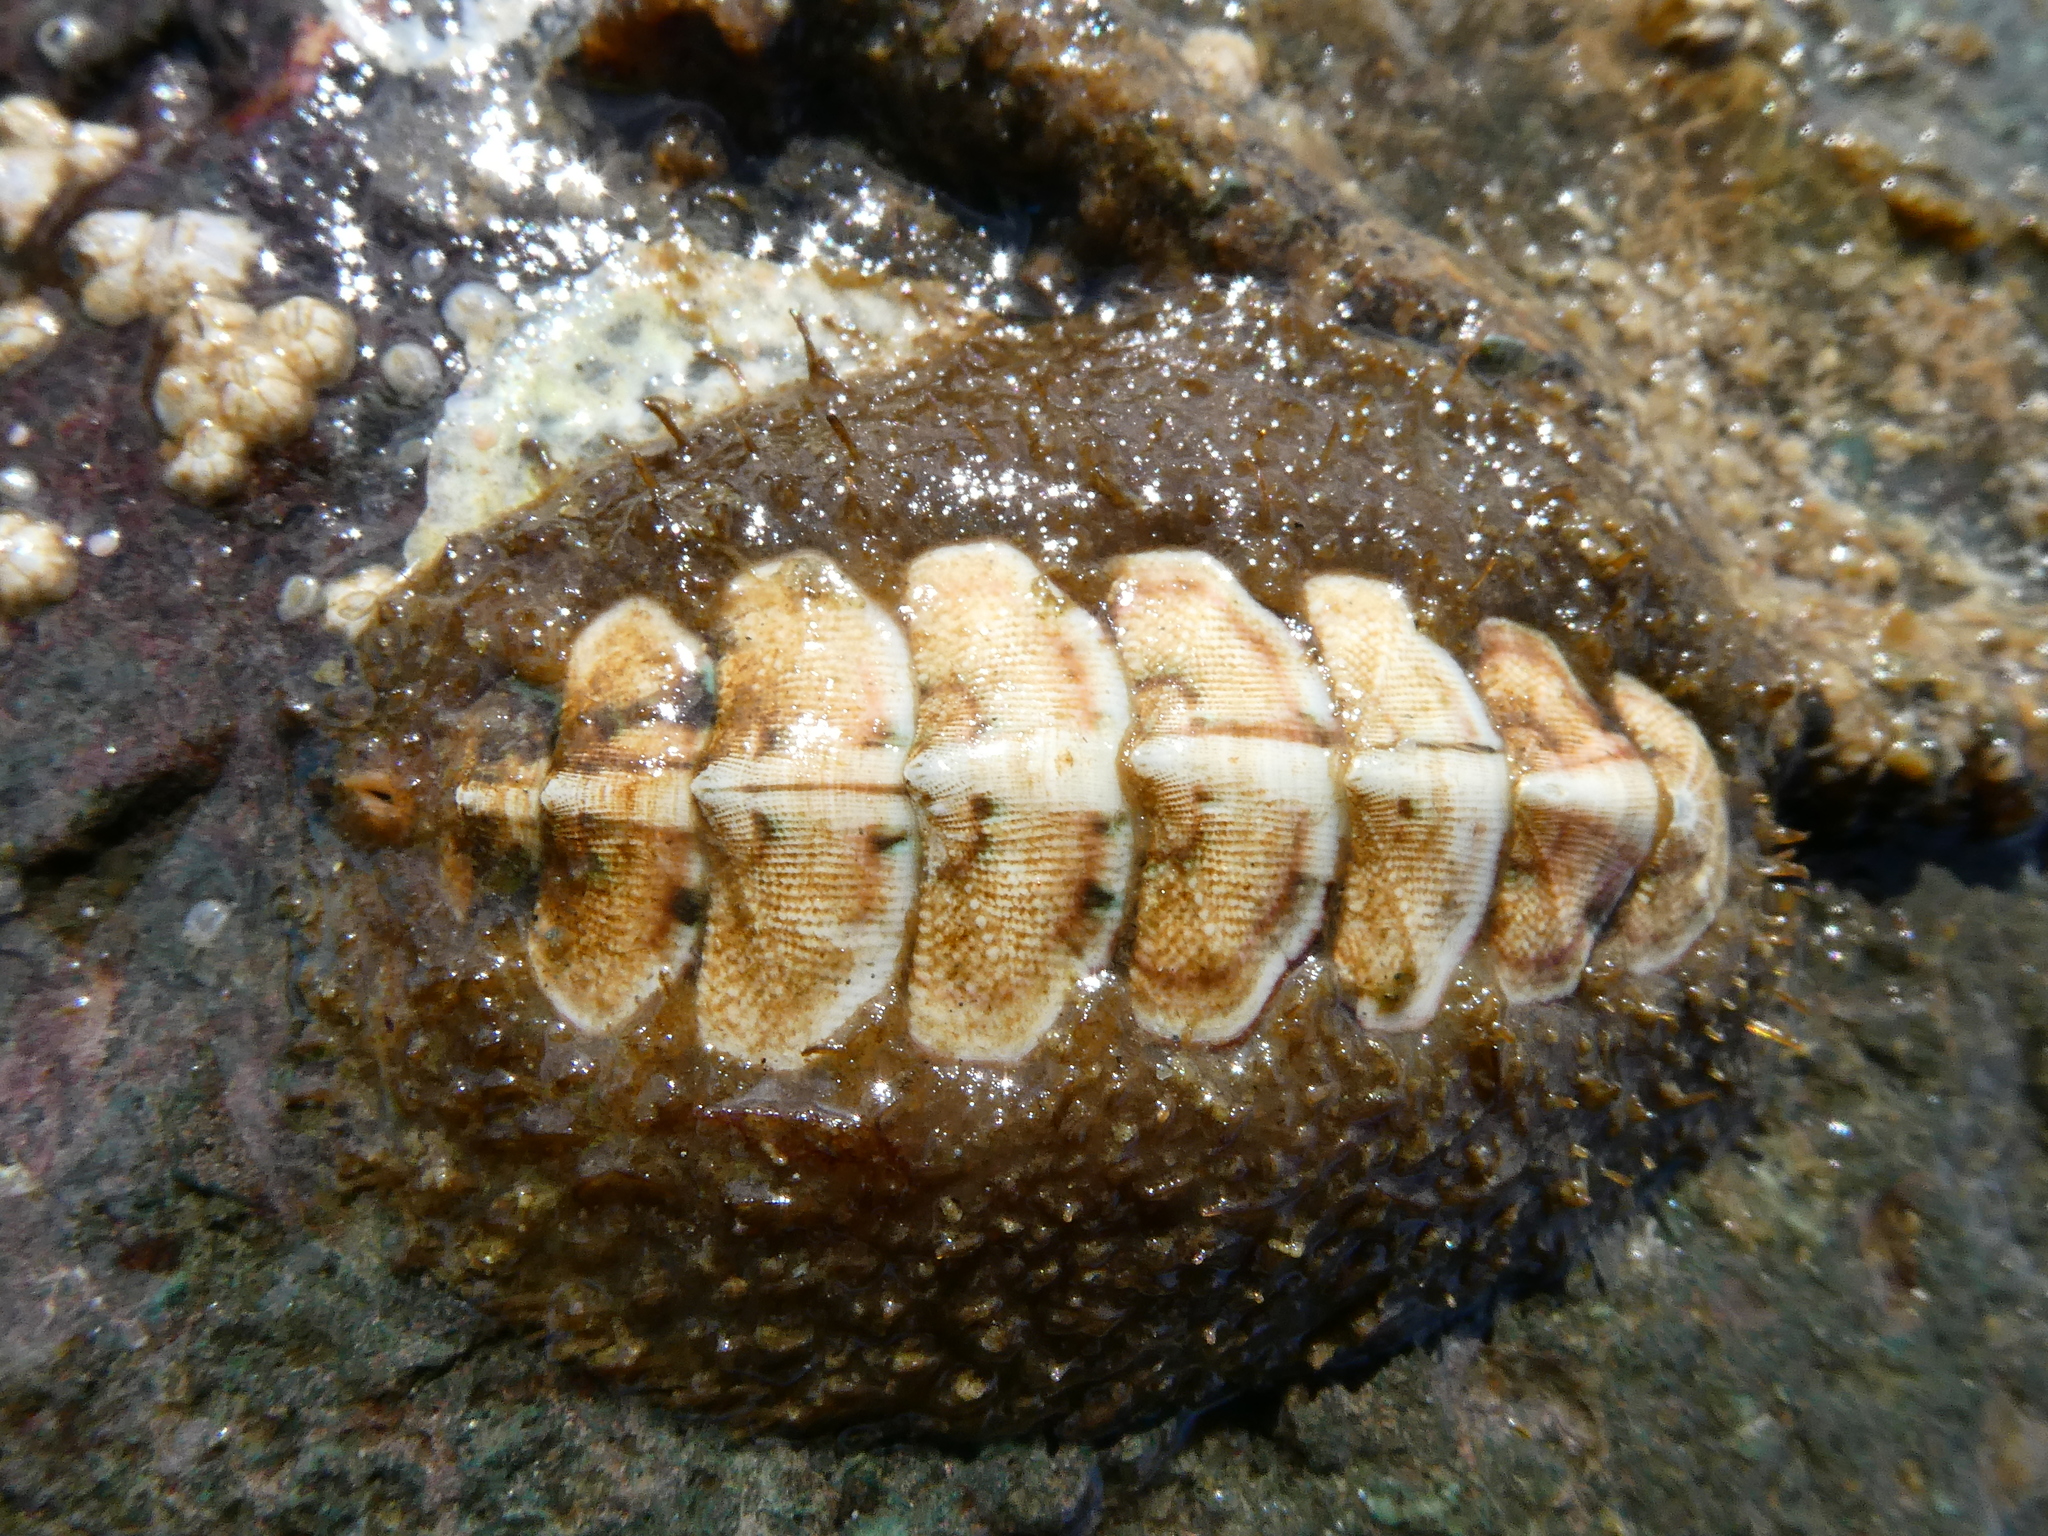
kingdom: Animalia
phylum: Mollusca
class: Polyplacophora
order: Chitonida
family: Mopaliidae
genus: Mopalia
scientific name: Mopalia ciliata
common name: Hairy chiton
